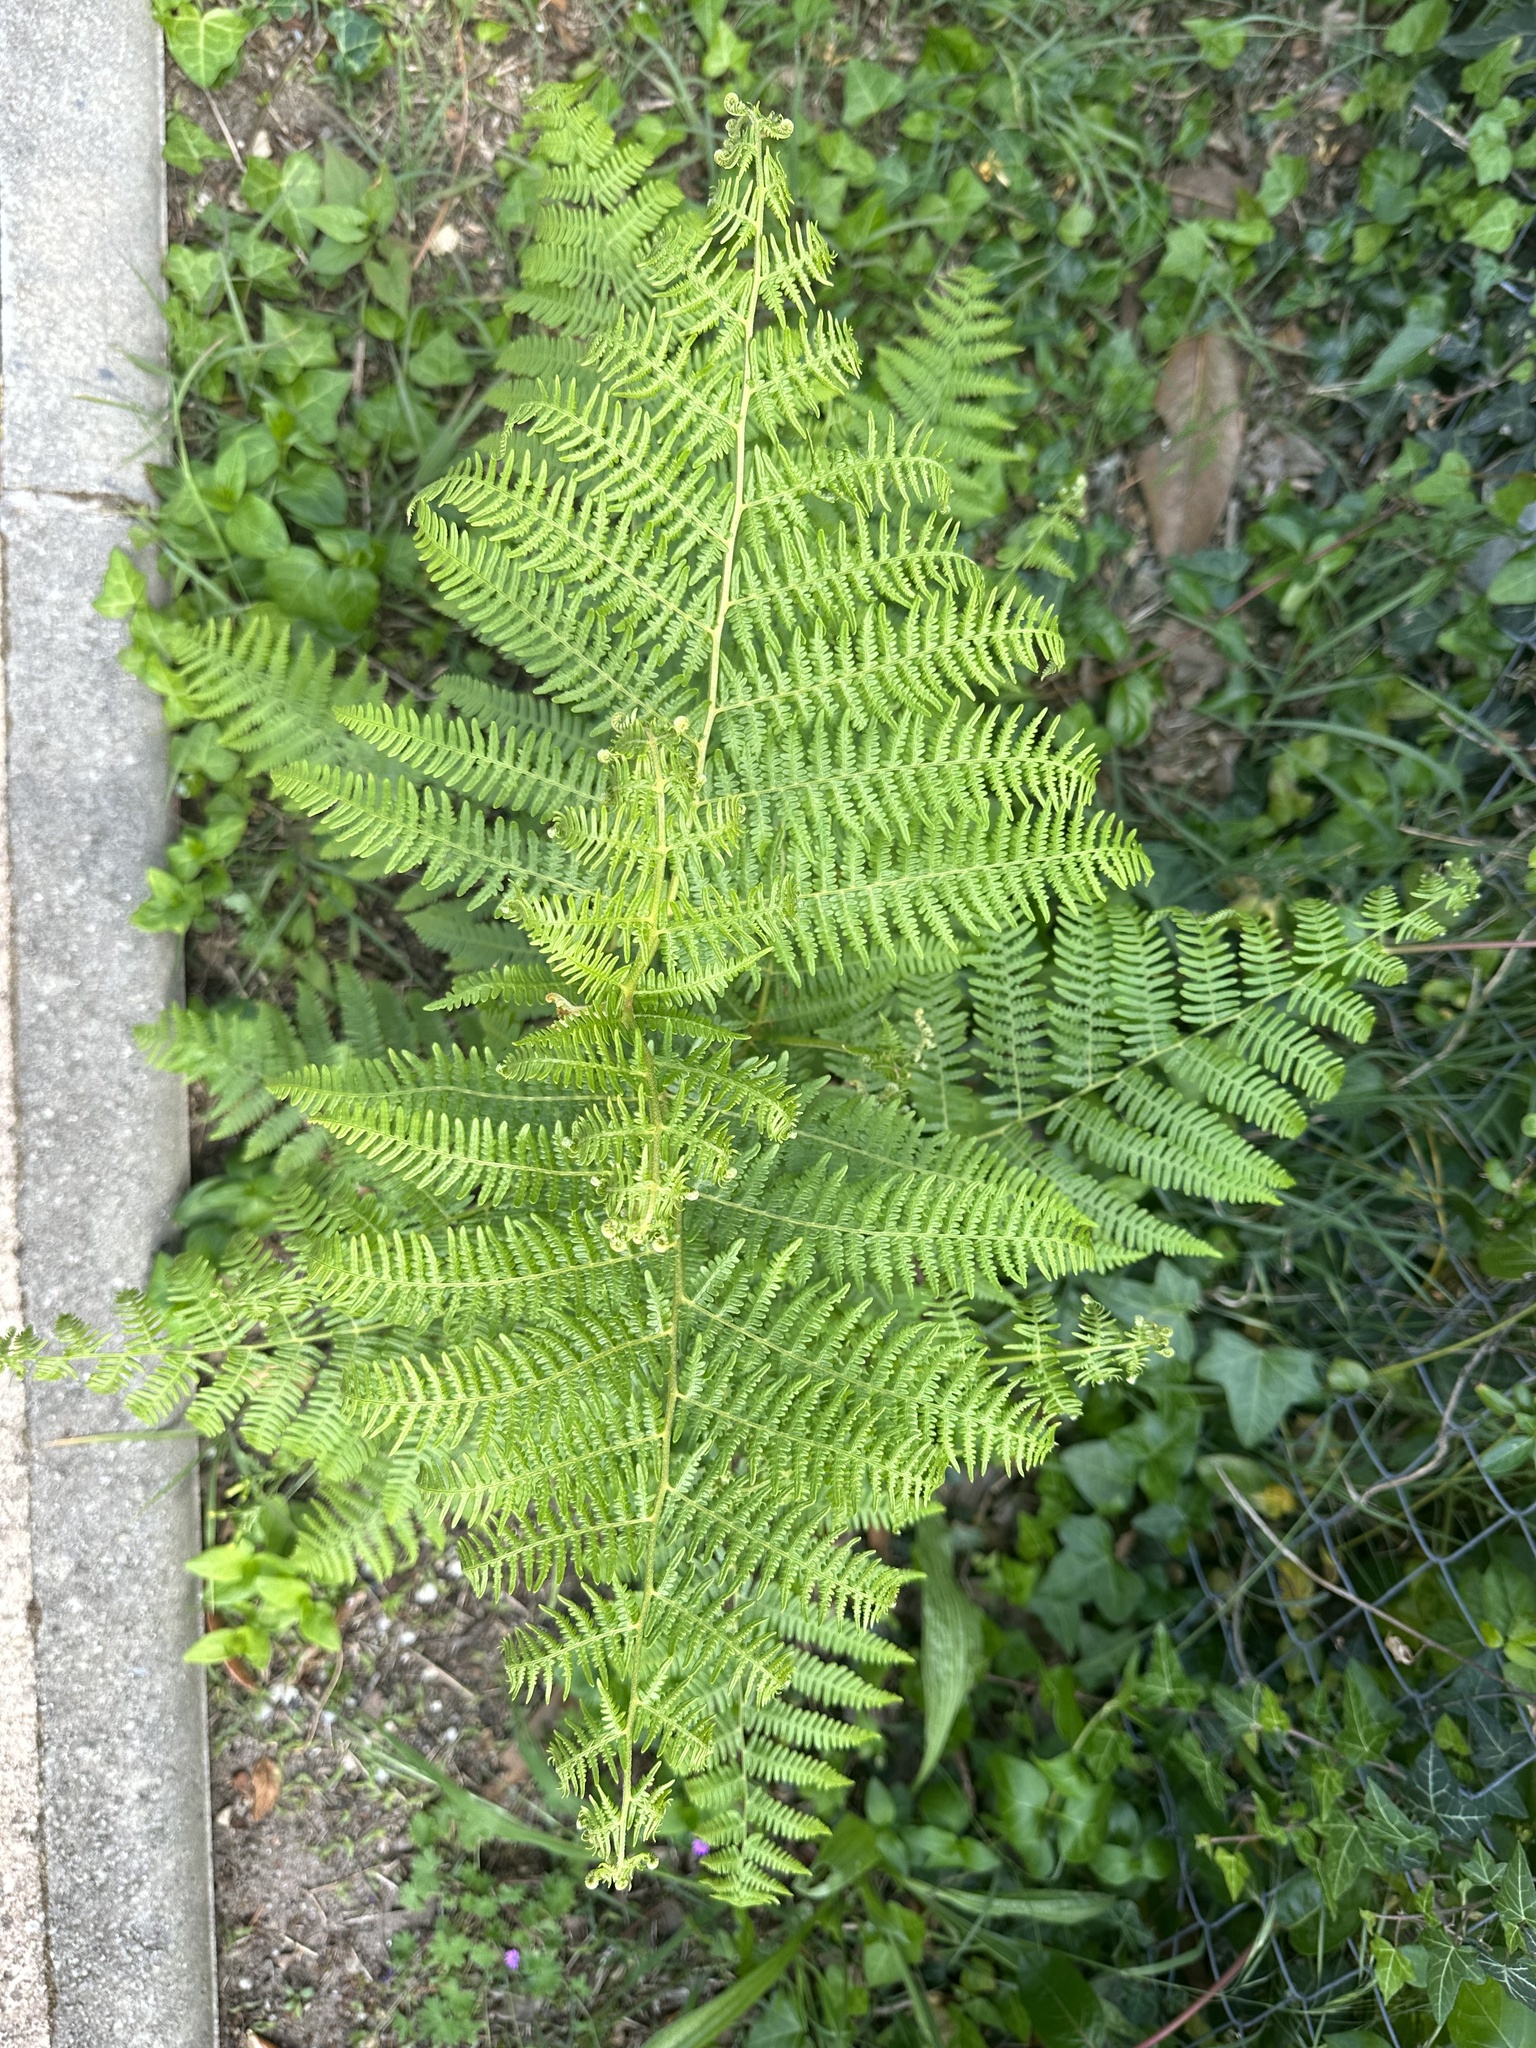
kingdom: Plantae
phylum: Tracheophyta
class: Polypodiopsida
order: Polypodiales
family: Dennstaedtiaceae
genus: Pteridium
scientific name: Pteridium aquilinum
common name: Bracken
